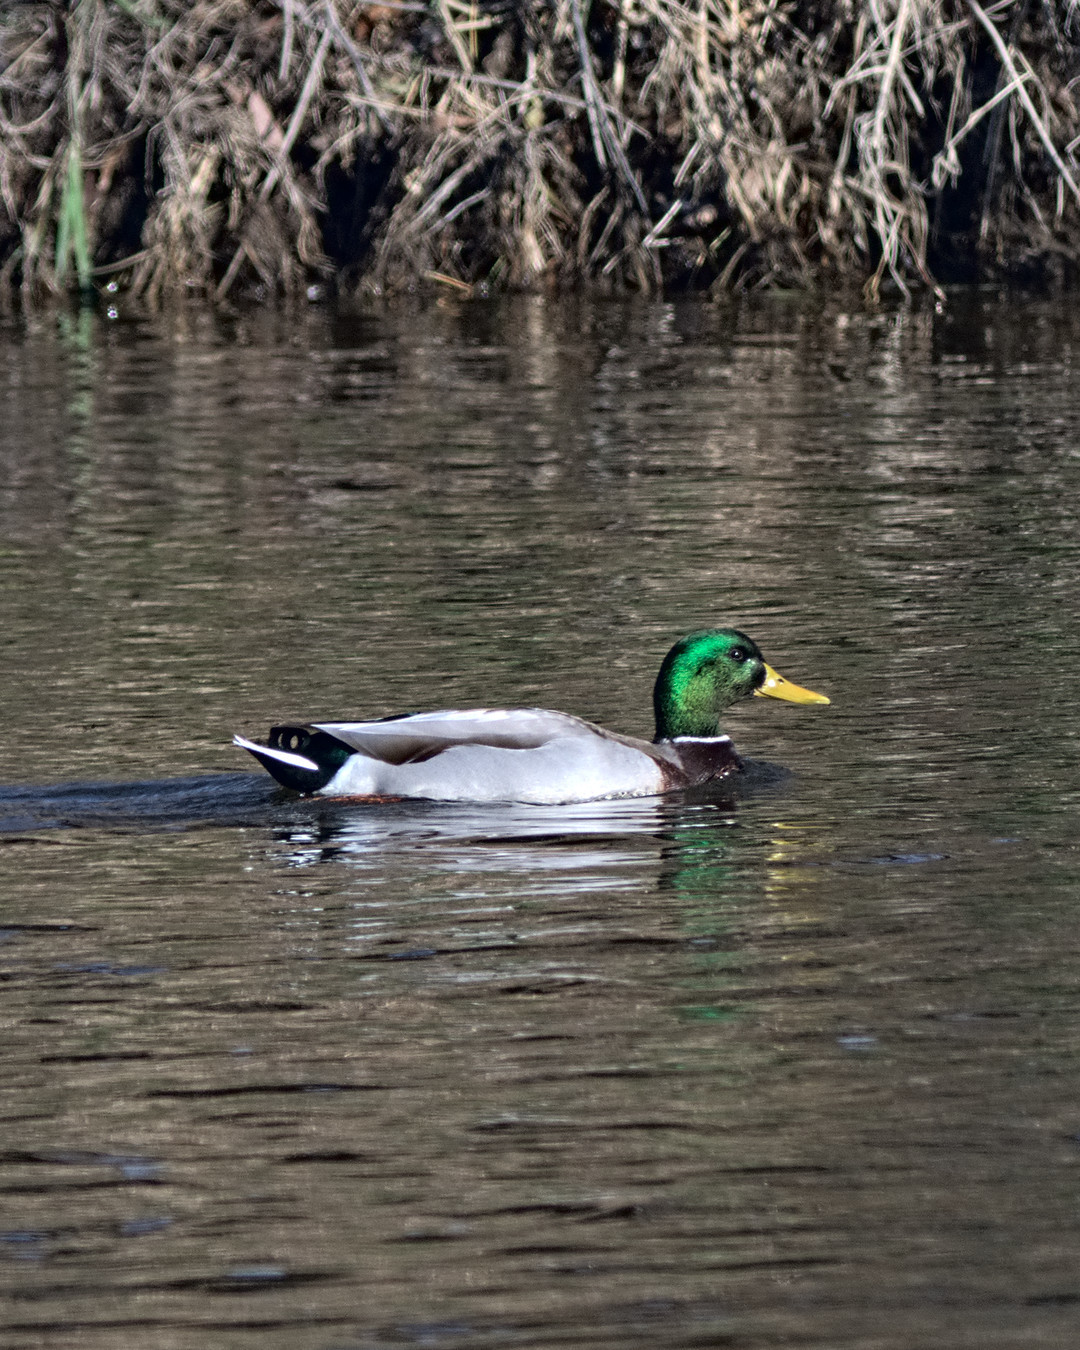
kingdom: Animalia
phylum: Chordata
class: Aves
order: Anseriformes
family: Anatidae
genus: Anas
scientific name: Anas platyrhynchos
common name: Mallard
